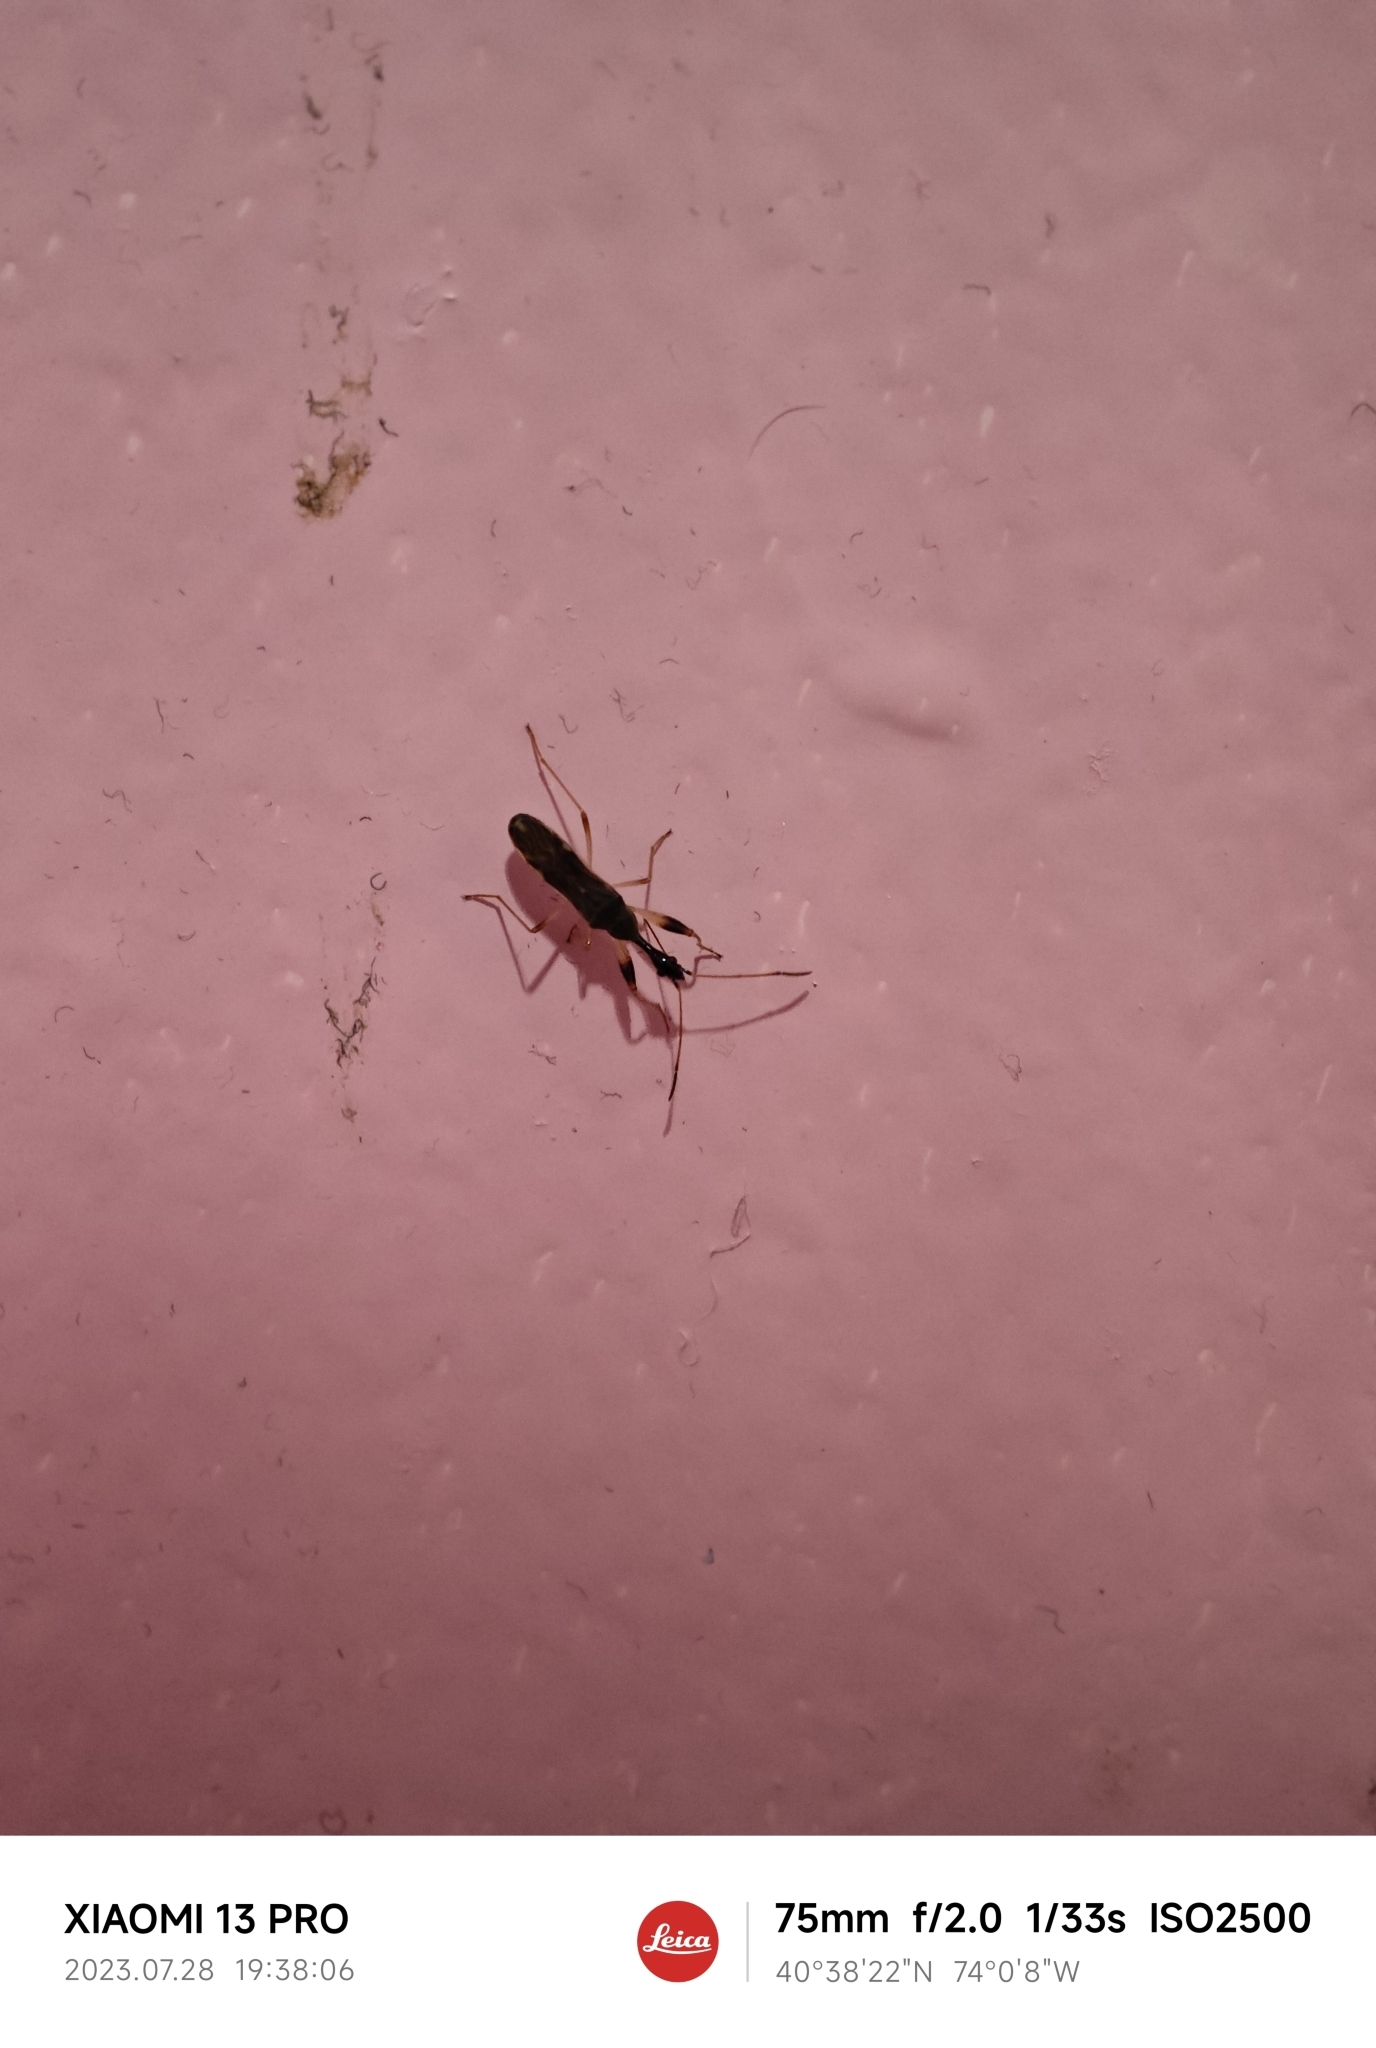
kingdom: Animalia
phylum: Arthropoda
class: Insecta
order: Hemiptera
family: Rhyparochromidae
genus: Myodocha
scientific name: Myodocha serripes
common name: Long-necked seed bug
